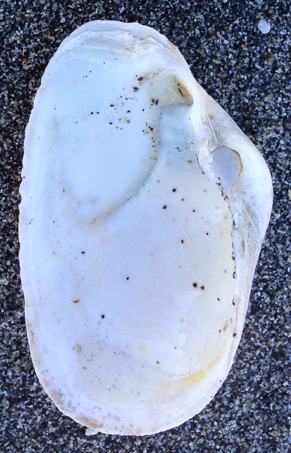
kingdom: Animalia
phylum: Mollusca
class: Bivalvia
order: Myida
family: Myidae
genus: Platyodon
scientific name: Platyodon cancellatus
